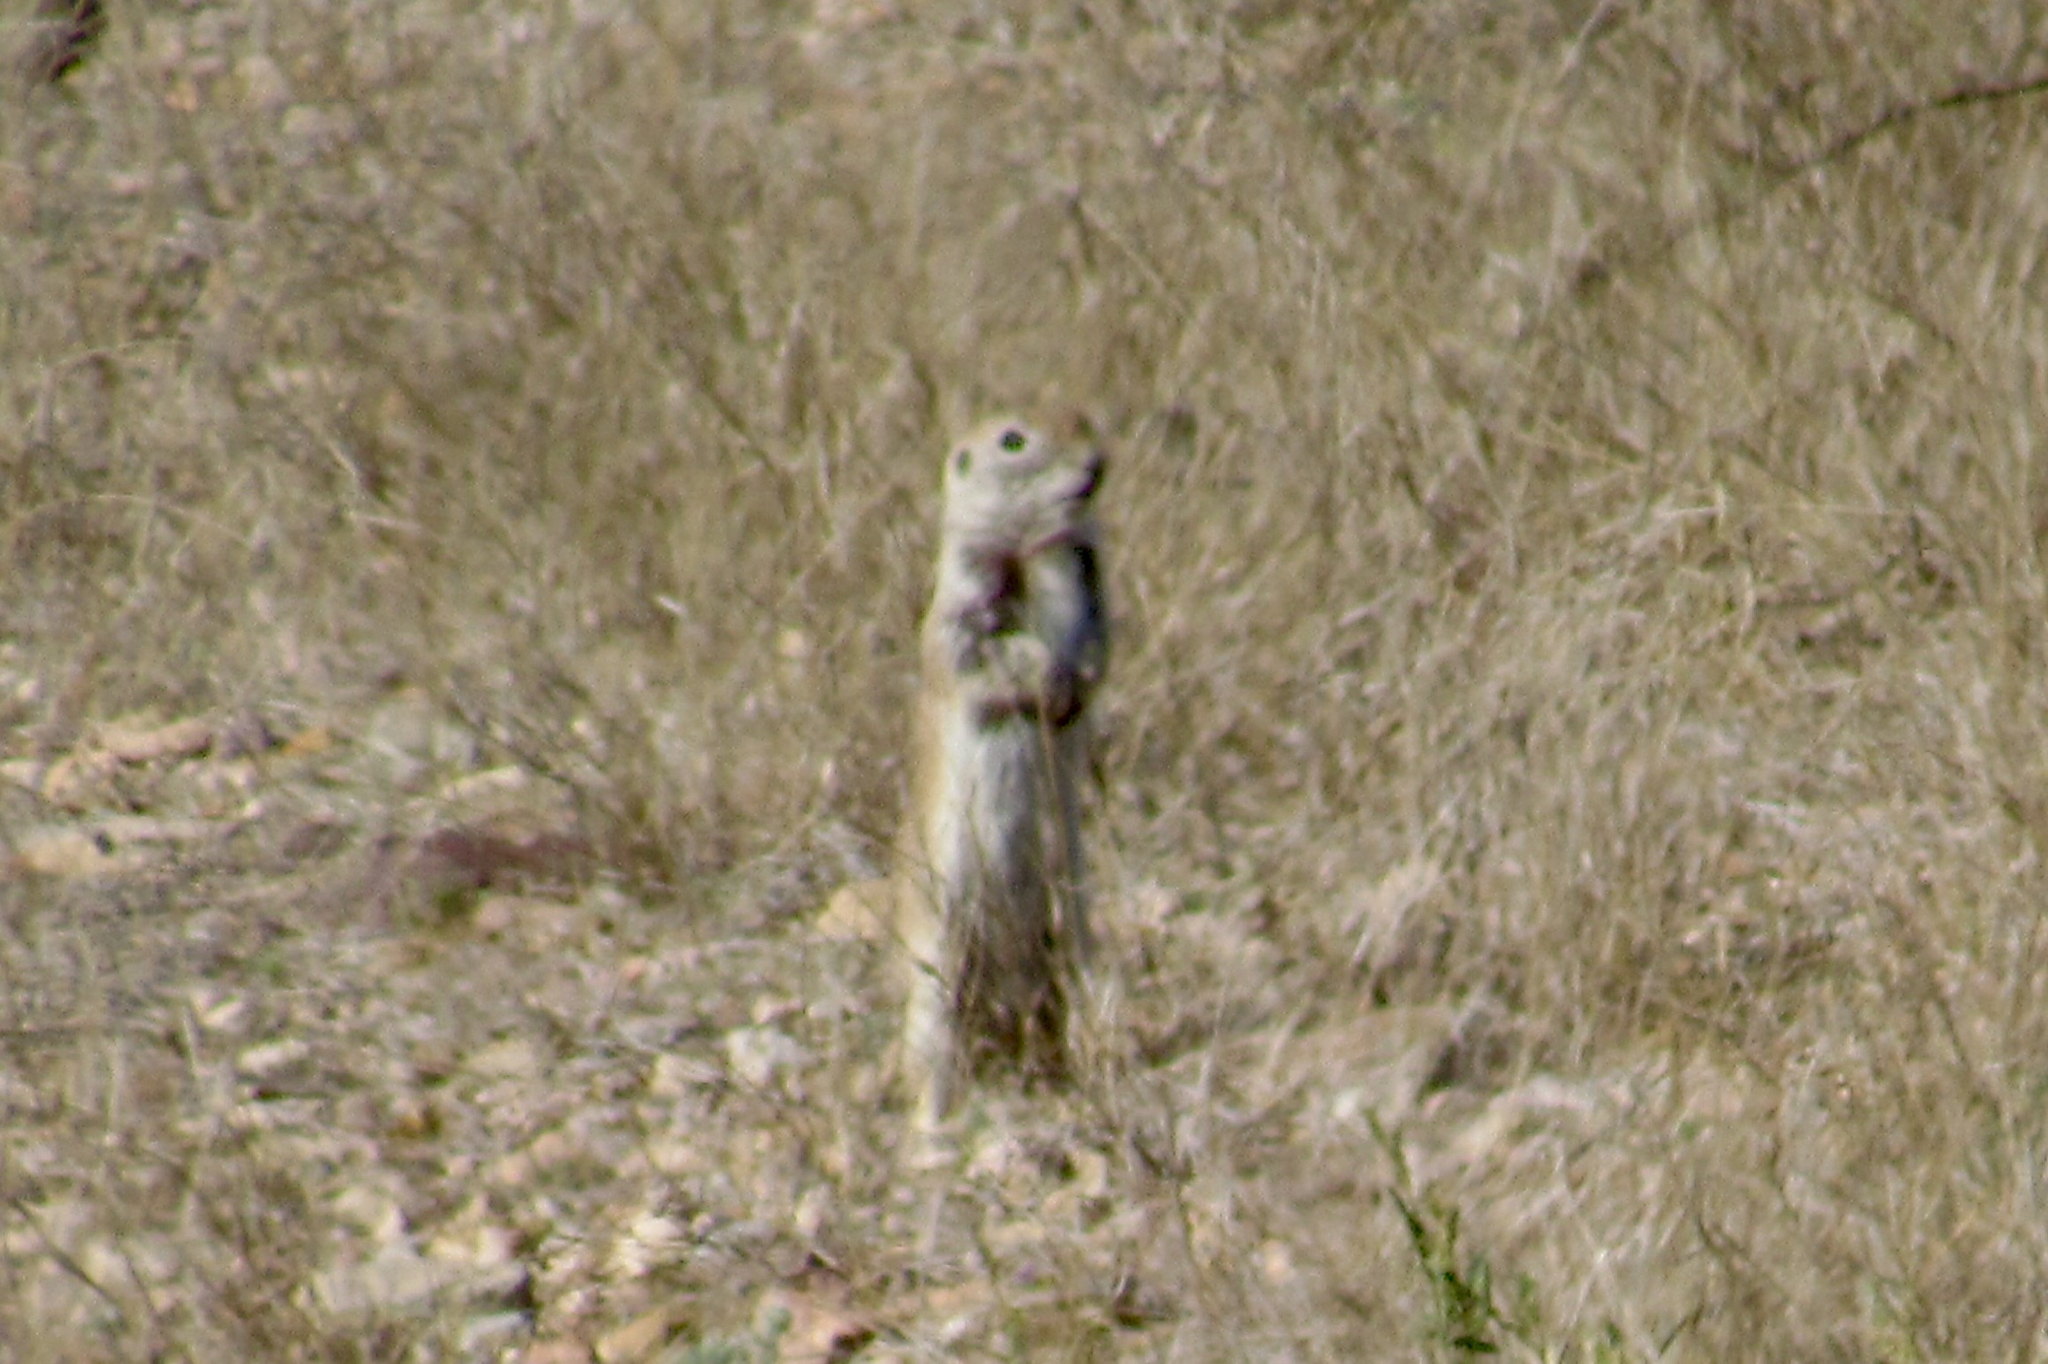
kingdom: Animalia
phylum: Chordata
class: Mammalia
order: Rodentia
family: Sciuridae
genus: Xerospermophilus
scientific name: Xerospermophilus tereticaudus
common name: Round-tailed ground squirrel
